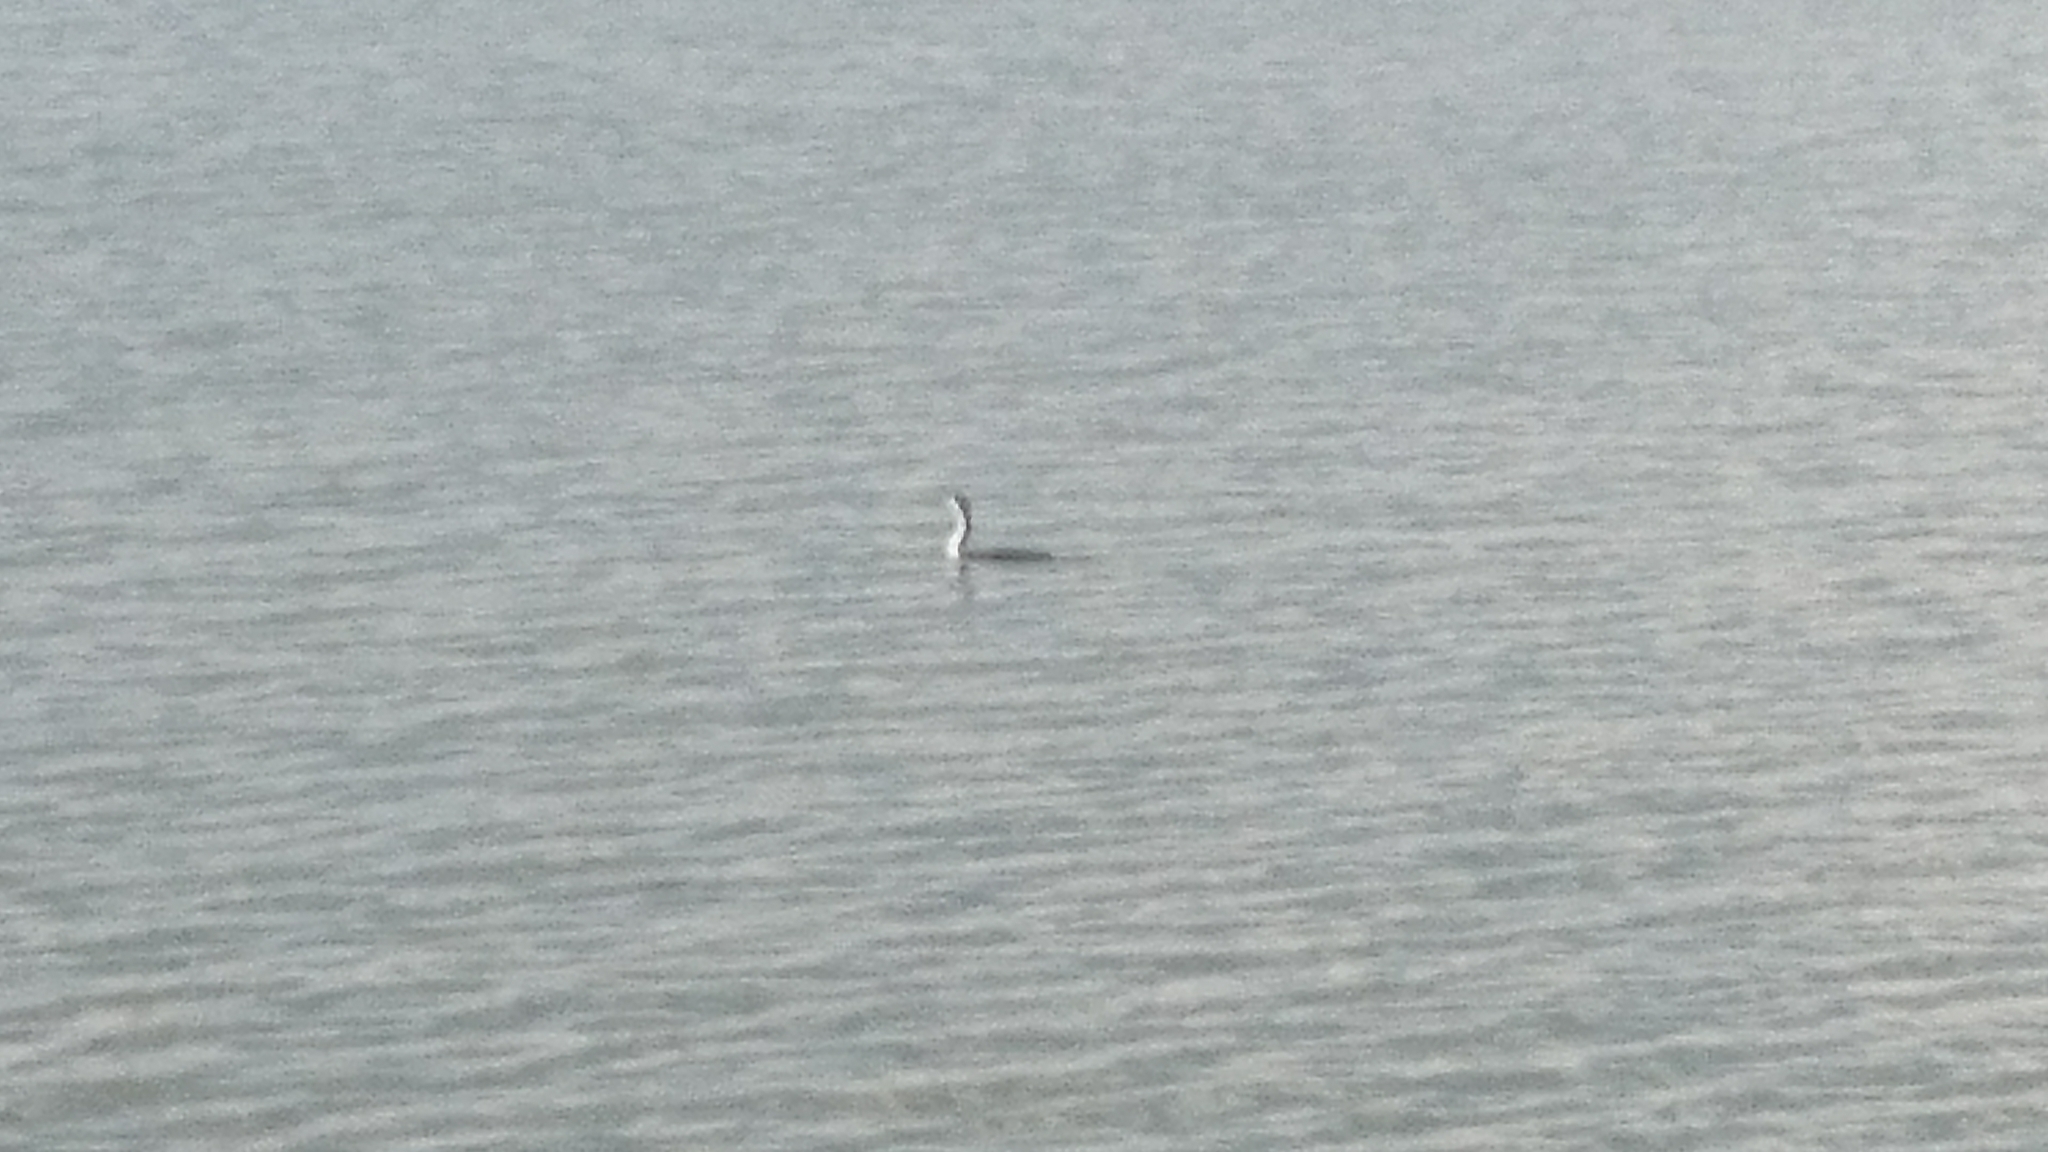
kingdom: Animalia
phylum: Chordata
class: Aves
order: Suliformes
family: Phalacrocoracidae
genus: Phalacrocorax
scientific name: Phalacrocorax varius
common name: Pied cormorant
